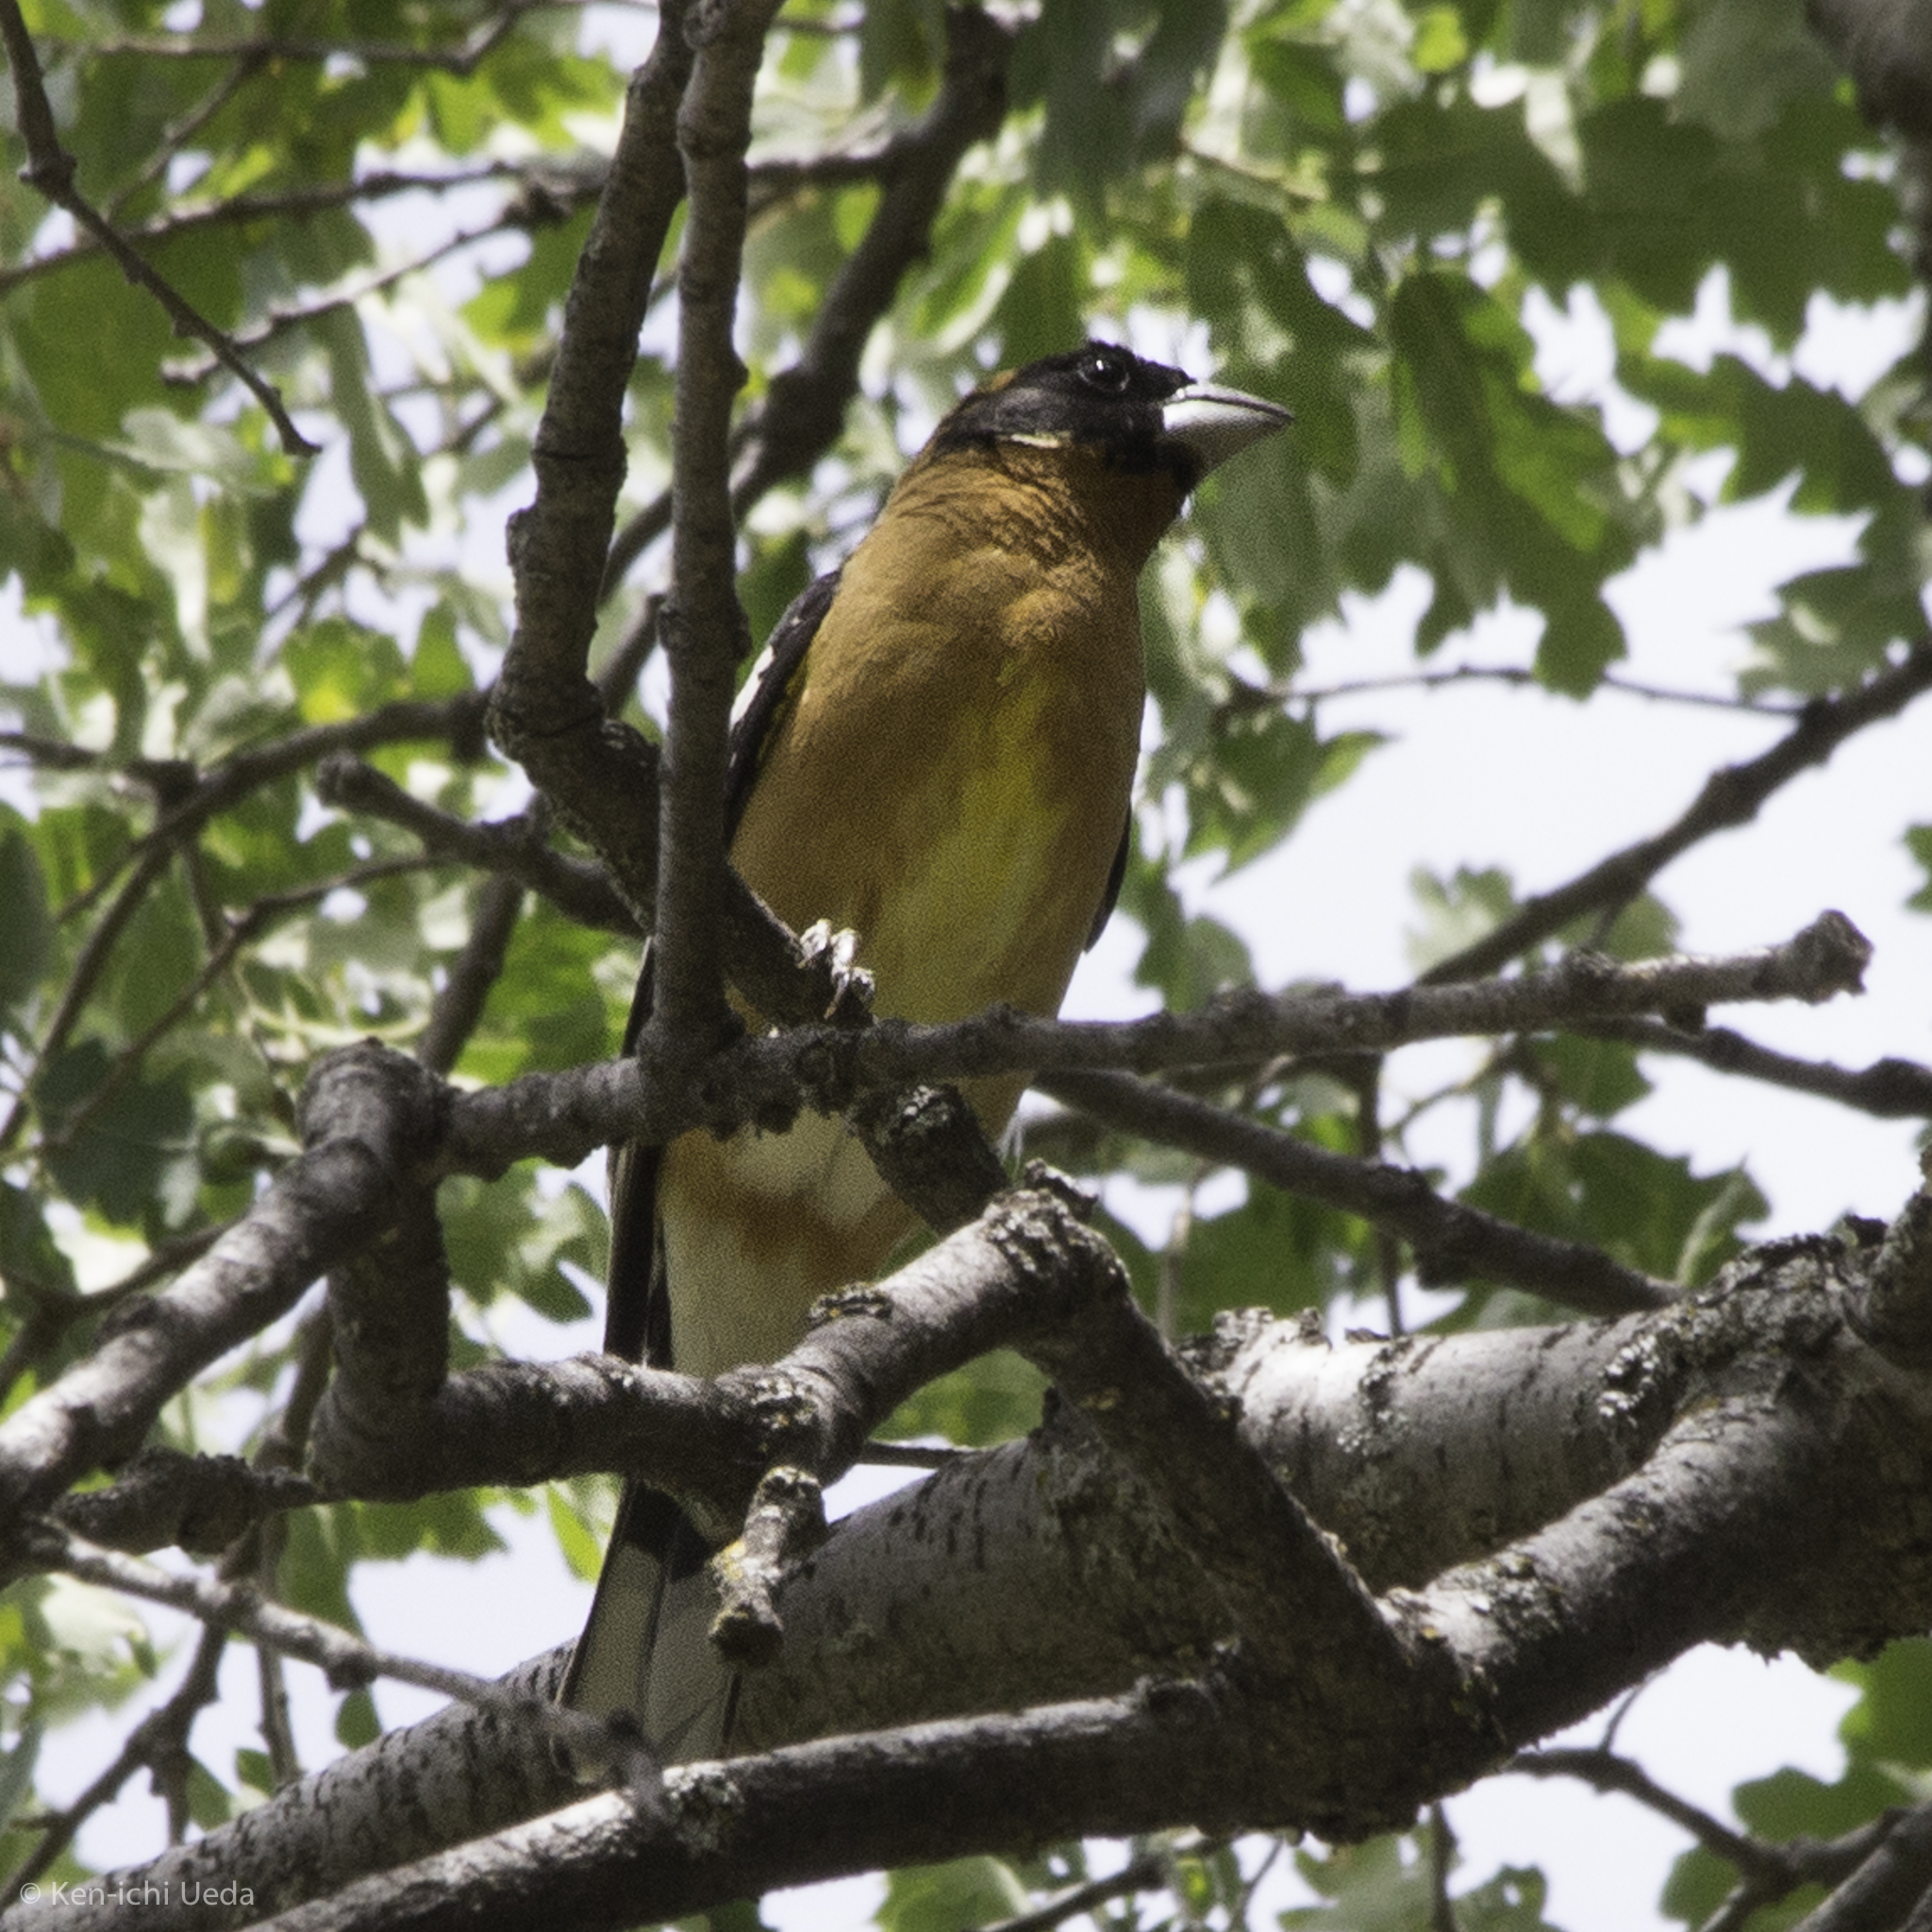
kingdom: Animalia
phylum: Chordata
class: Aves
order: Passeriformes
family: Cardinalidae
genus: Pheucticus
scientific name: Pheucticus melanocephalus
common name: Black-headed grosbeak
